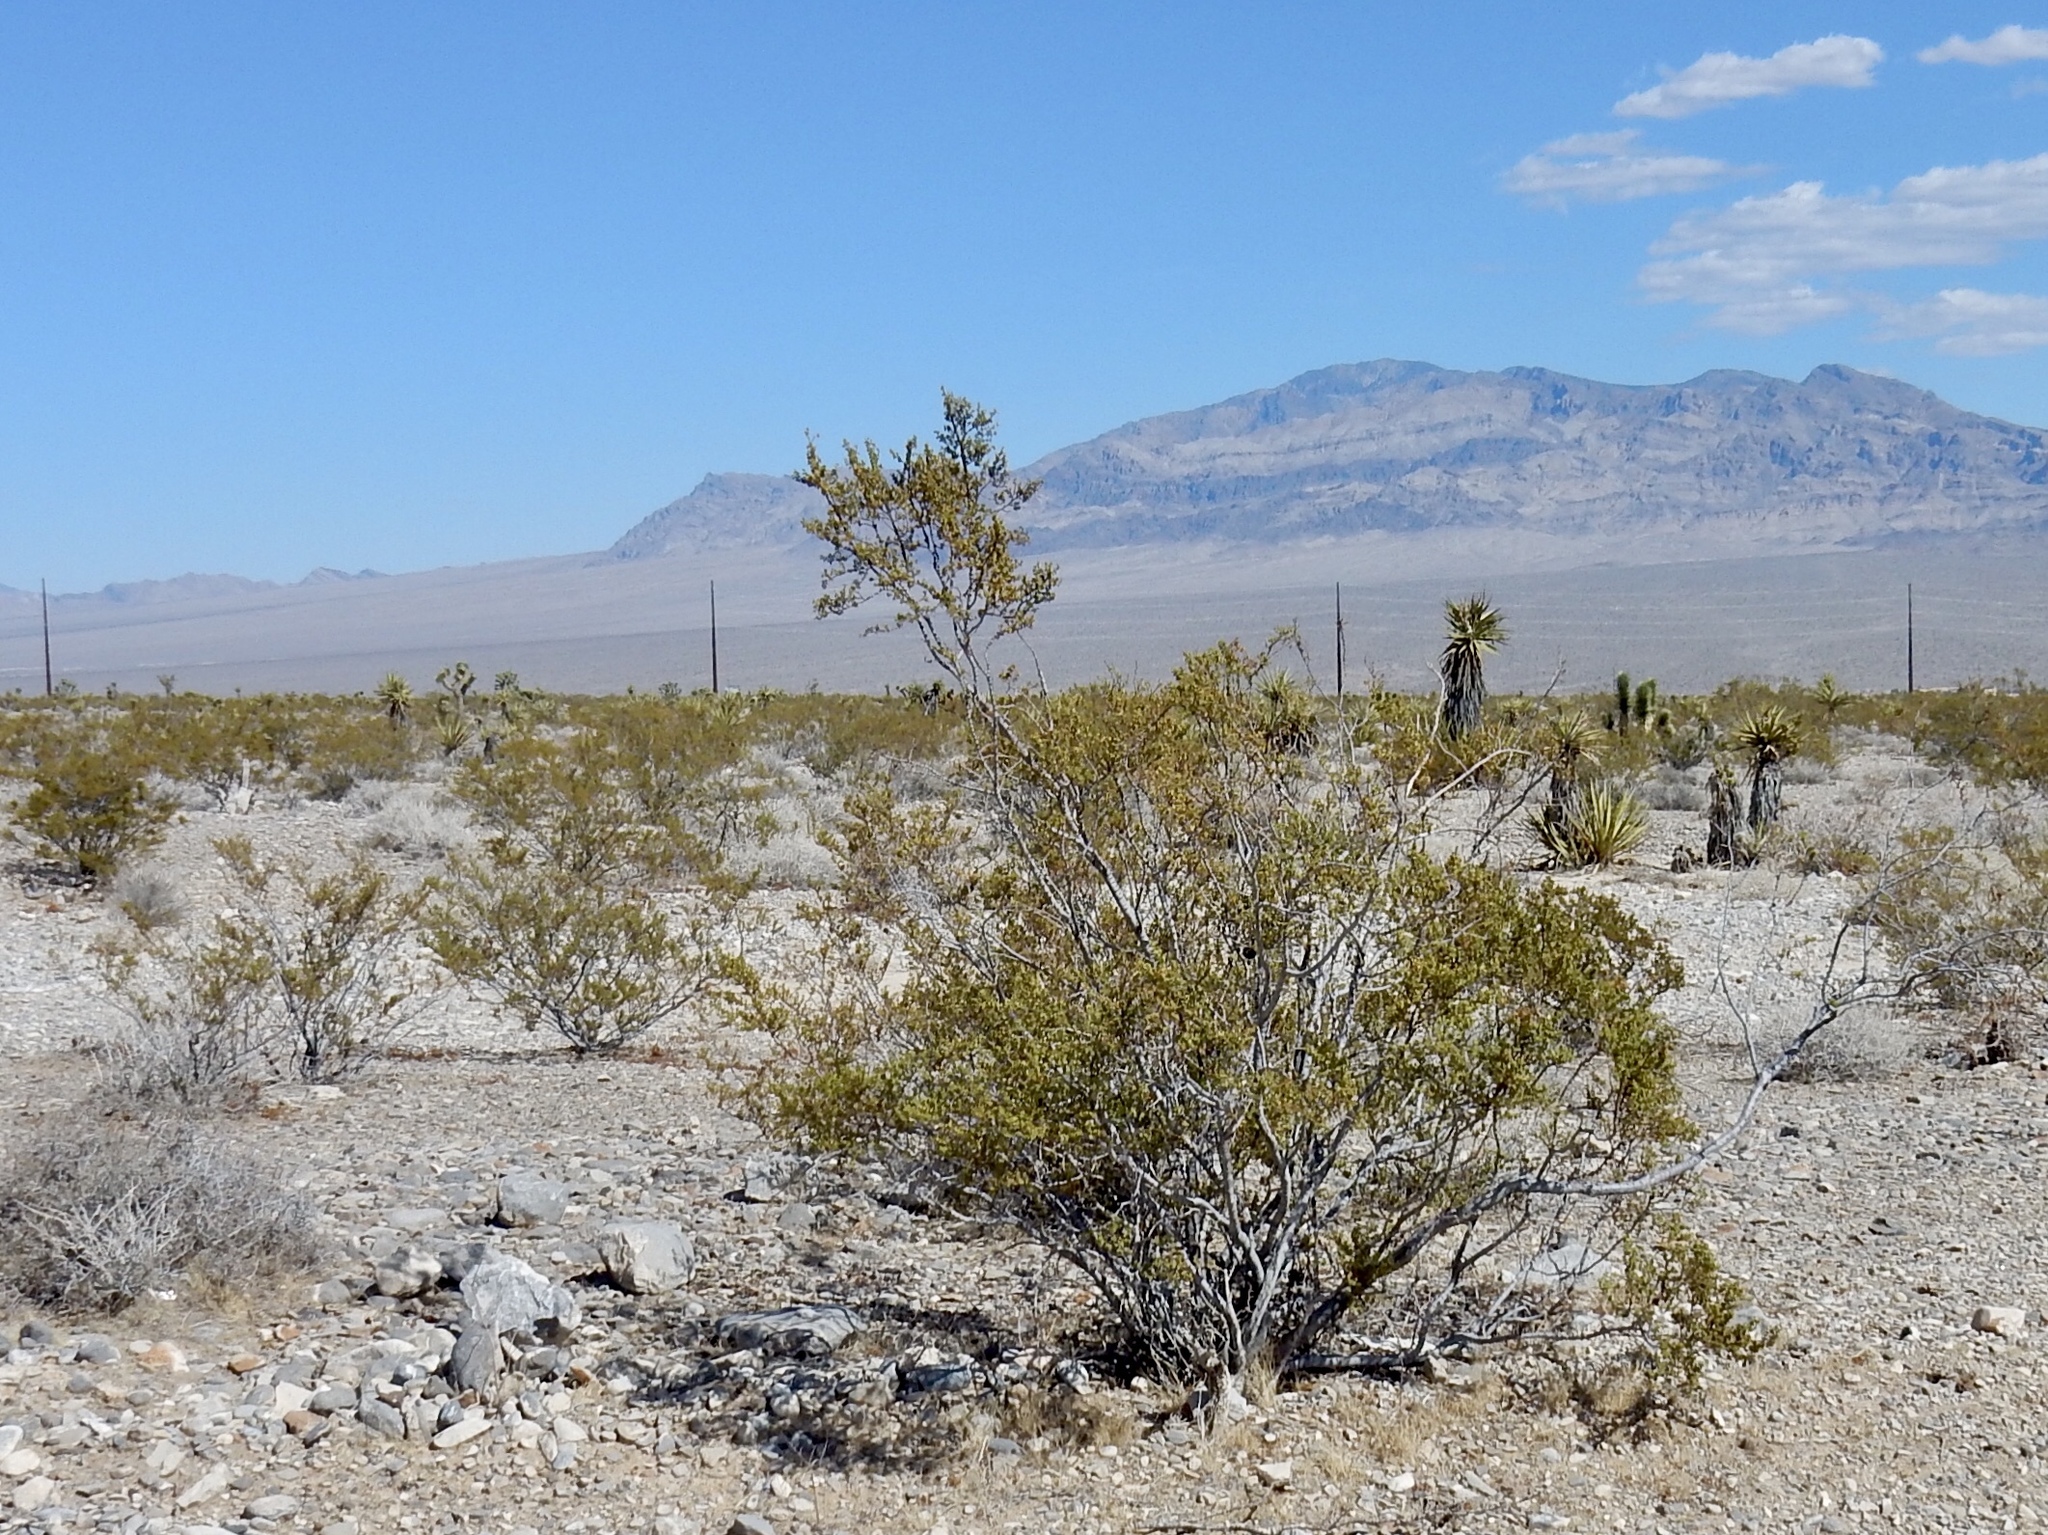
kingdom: Plantae
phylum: Tracheophyta
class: Magnoliopsida
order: Zygophyllales
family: Zygophyllaceae
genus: Larrea
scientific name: Larrea tridentata
